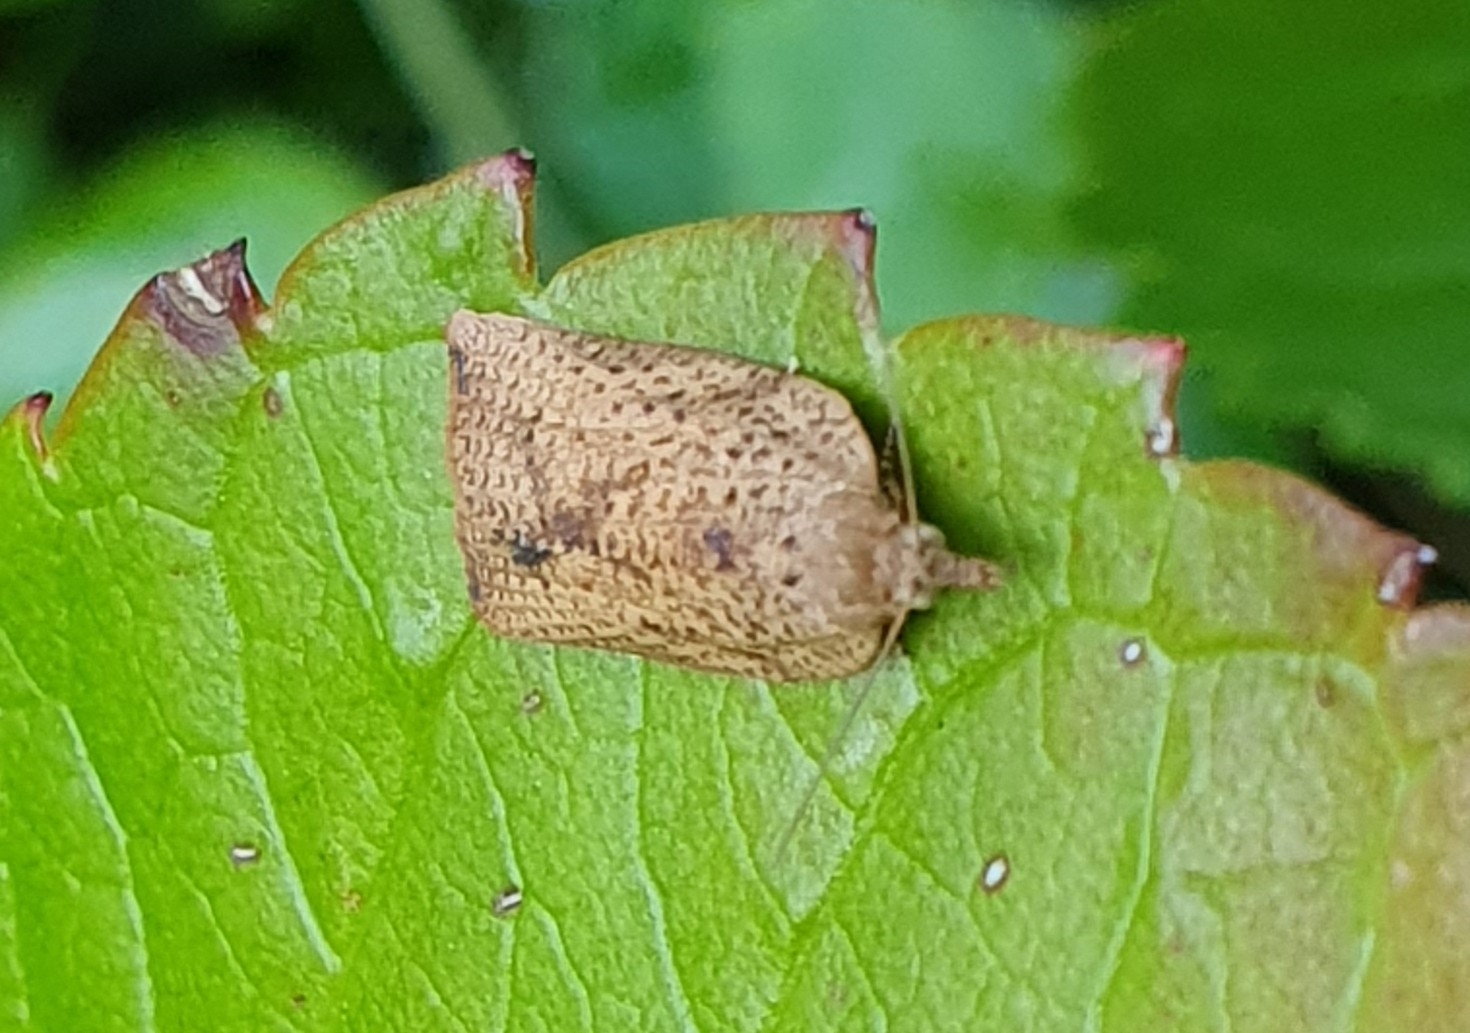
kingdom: Animalia
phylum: Arthropoda
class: Insecta
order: Lepidoptera
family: Tortricidae
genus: Epiphyas
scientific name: Epiphyas postvittana
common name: Light brown apple moth
